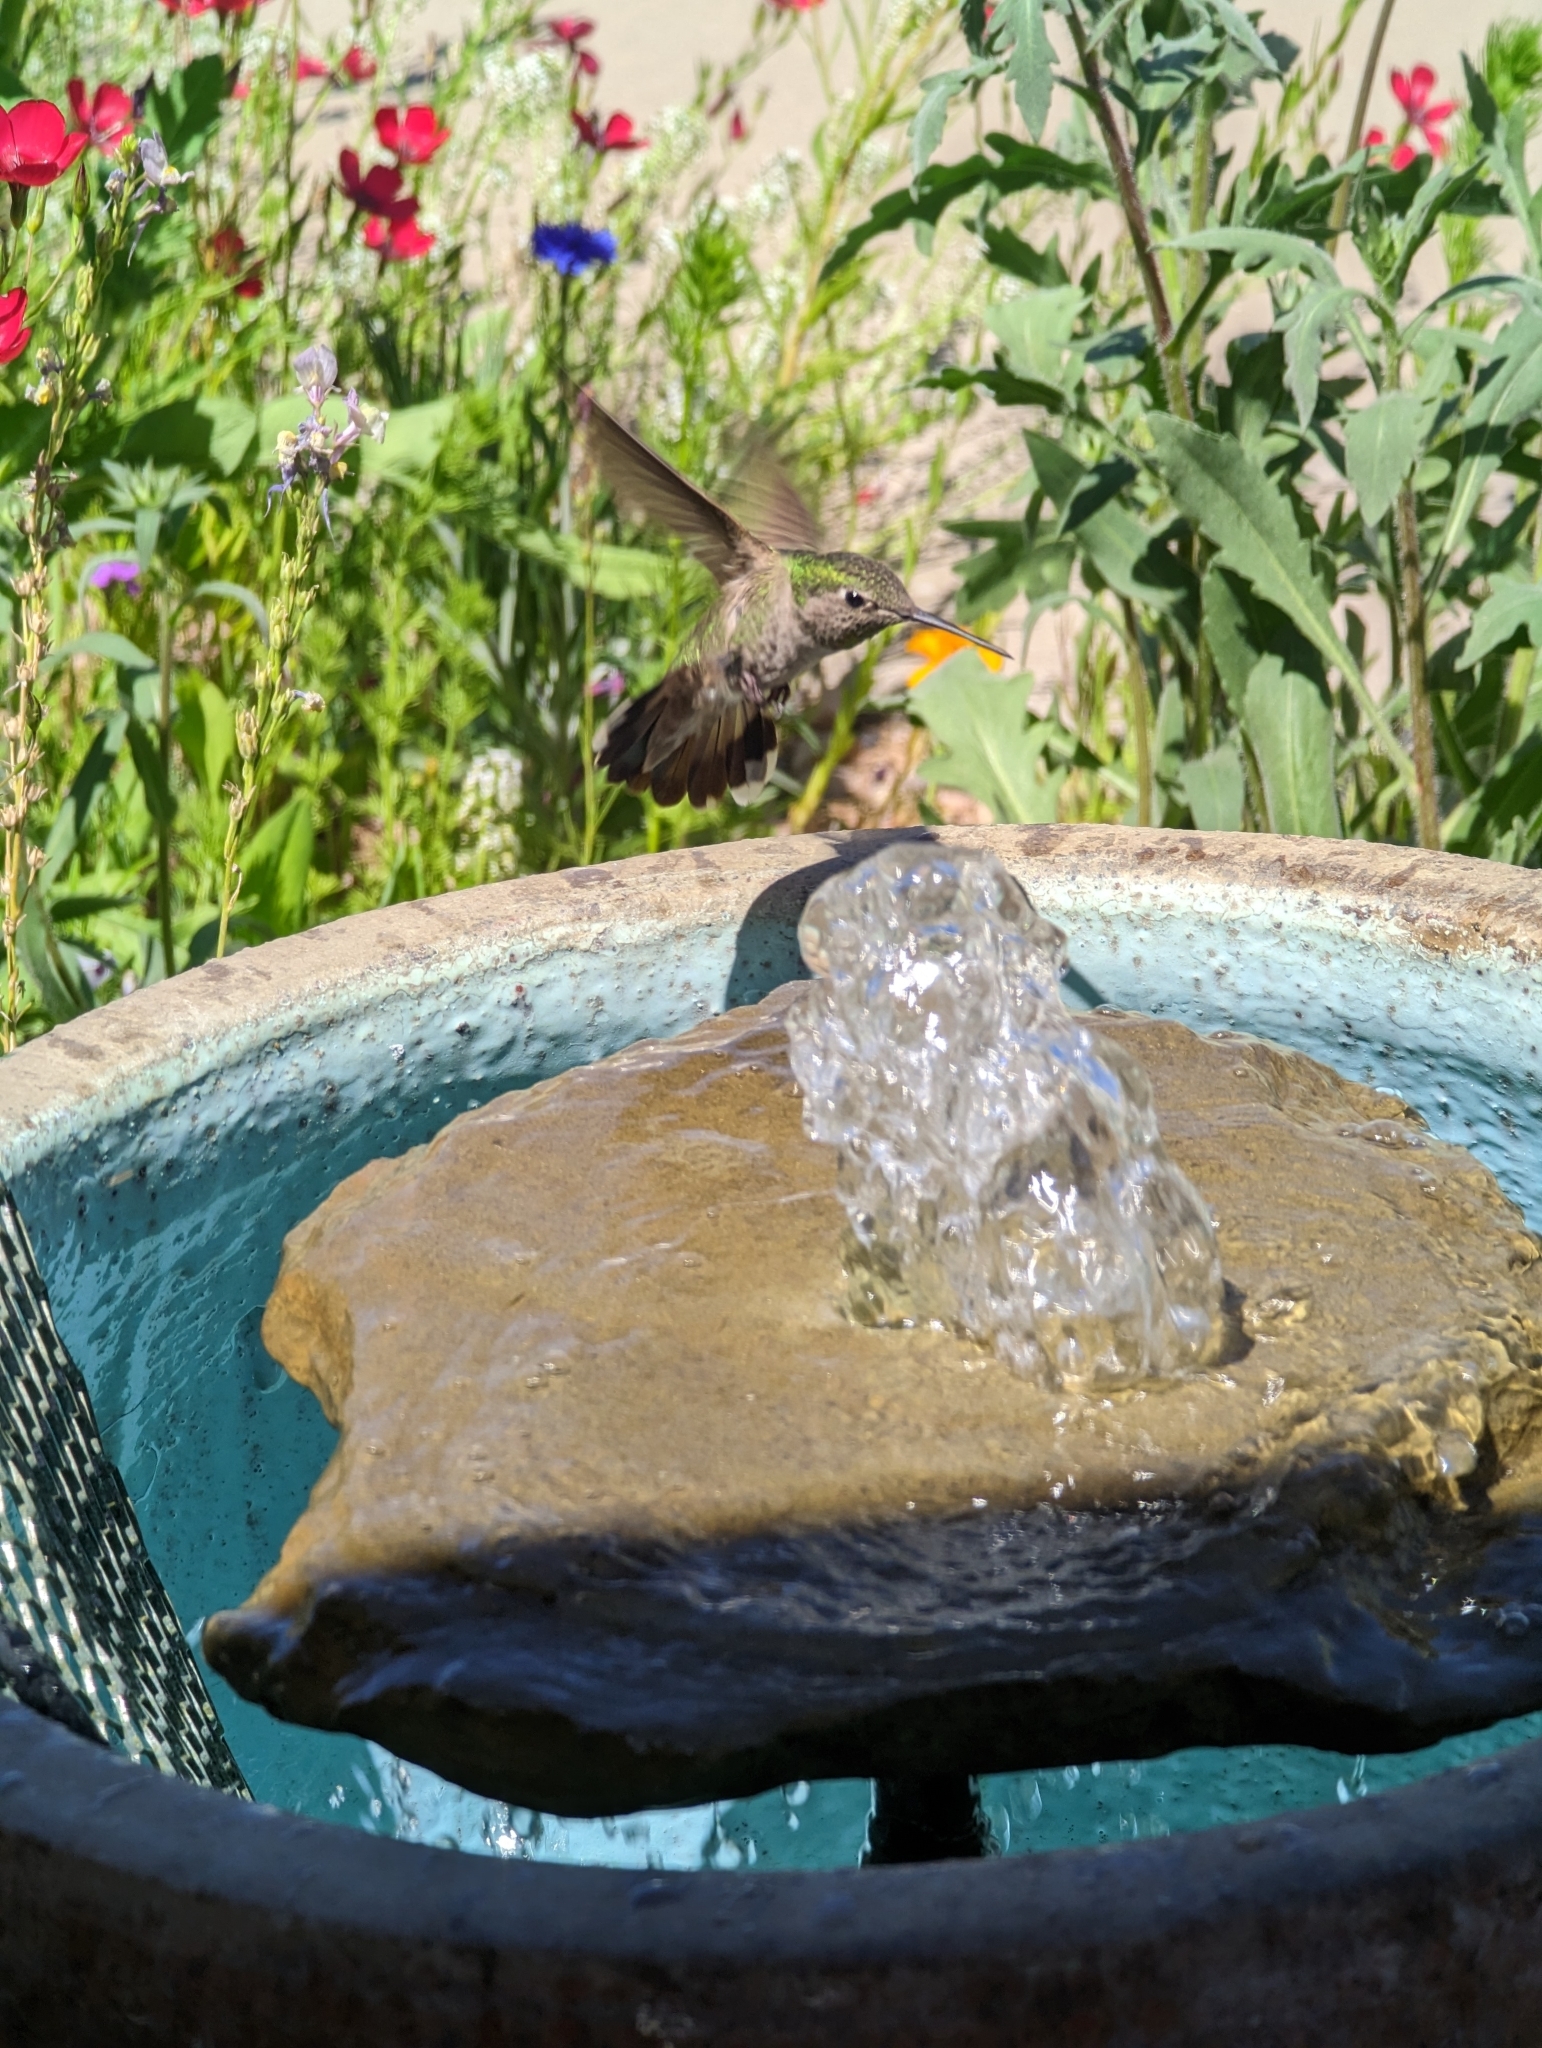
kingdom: Animalia
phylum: Chordata
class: Aves
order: Apodiformes
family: Trochilidae
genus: Calypte
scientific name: Calypte anna
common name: Anna's hummingbird
